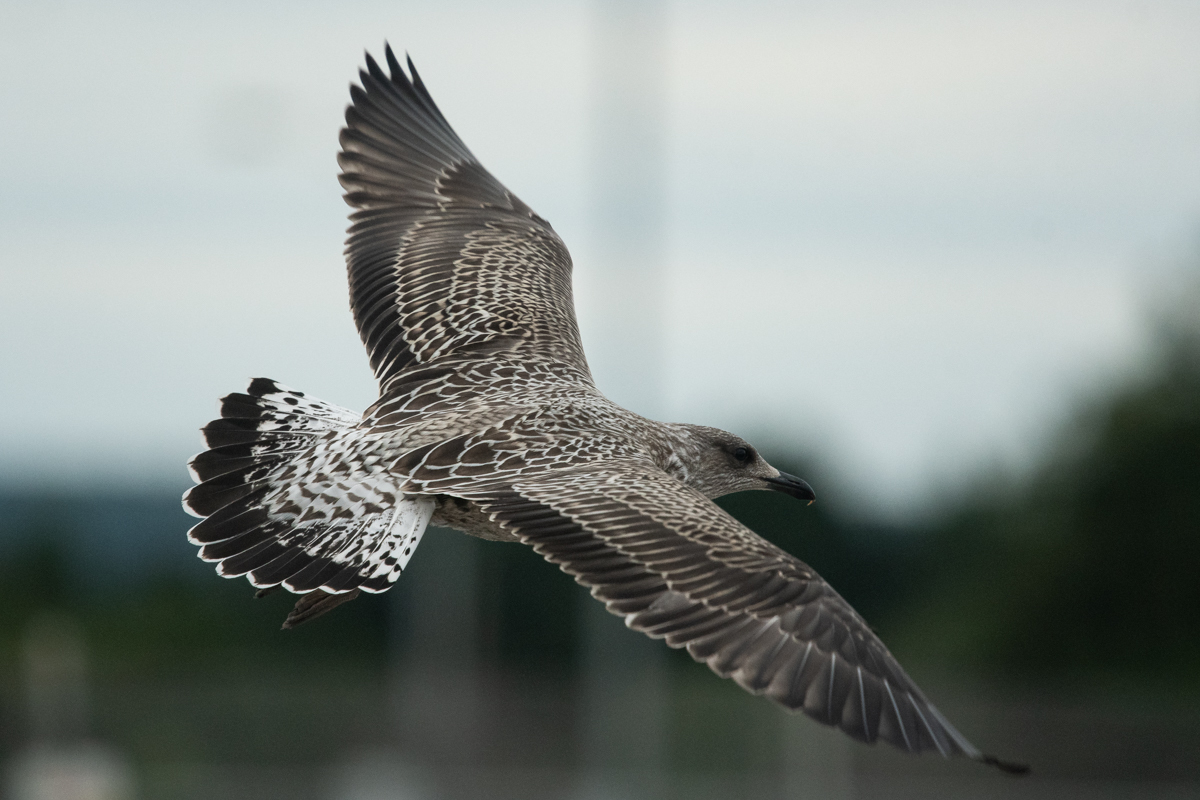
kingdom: Animalia
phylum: Chordata
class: Aves
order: Charadriiformes
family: Laridae
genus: Larus
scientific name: Larus fuscus
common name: Lesser black-backed gull
